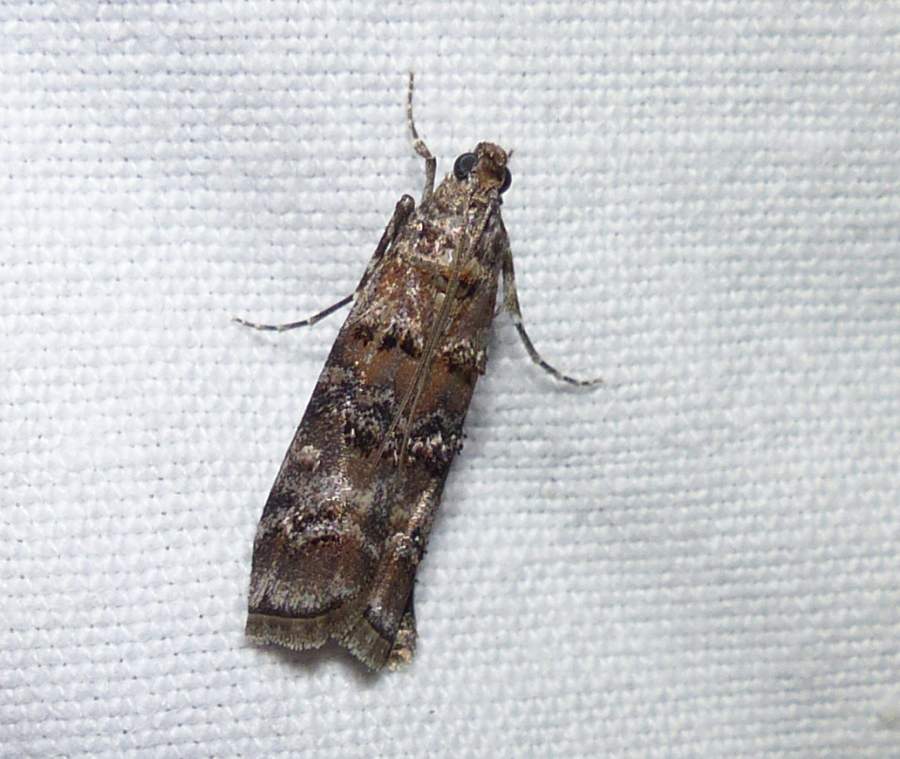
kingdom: Animalia
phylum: Arthropoda
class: Insecta
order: Lepidoptera
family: Pyralidae
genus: Dioryctria
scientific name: Dioryctria zimmermani
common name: Zimmerman pine moth
